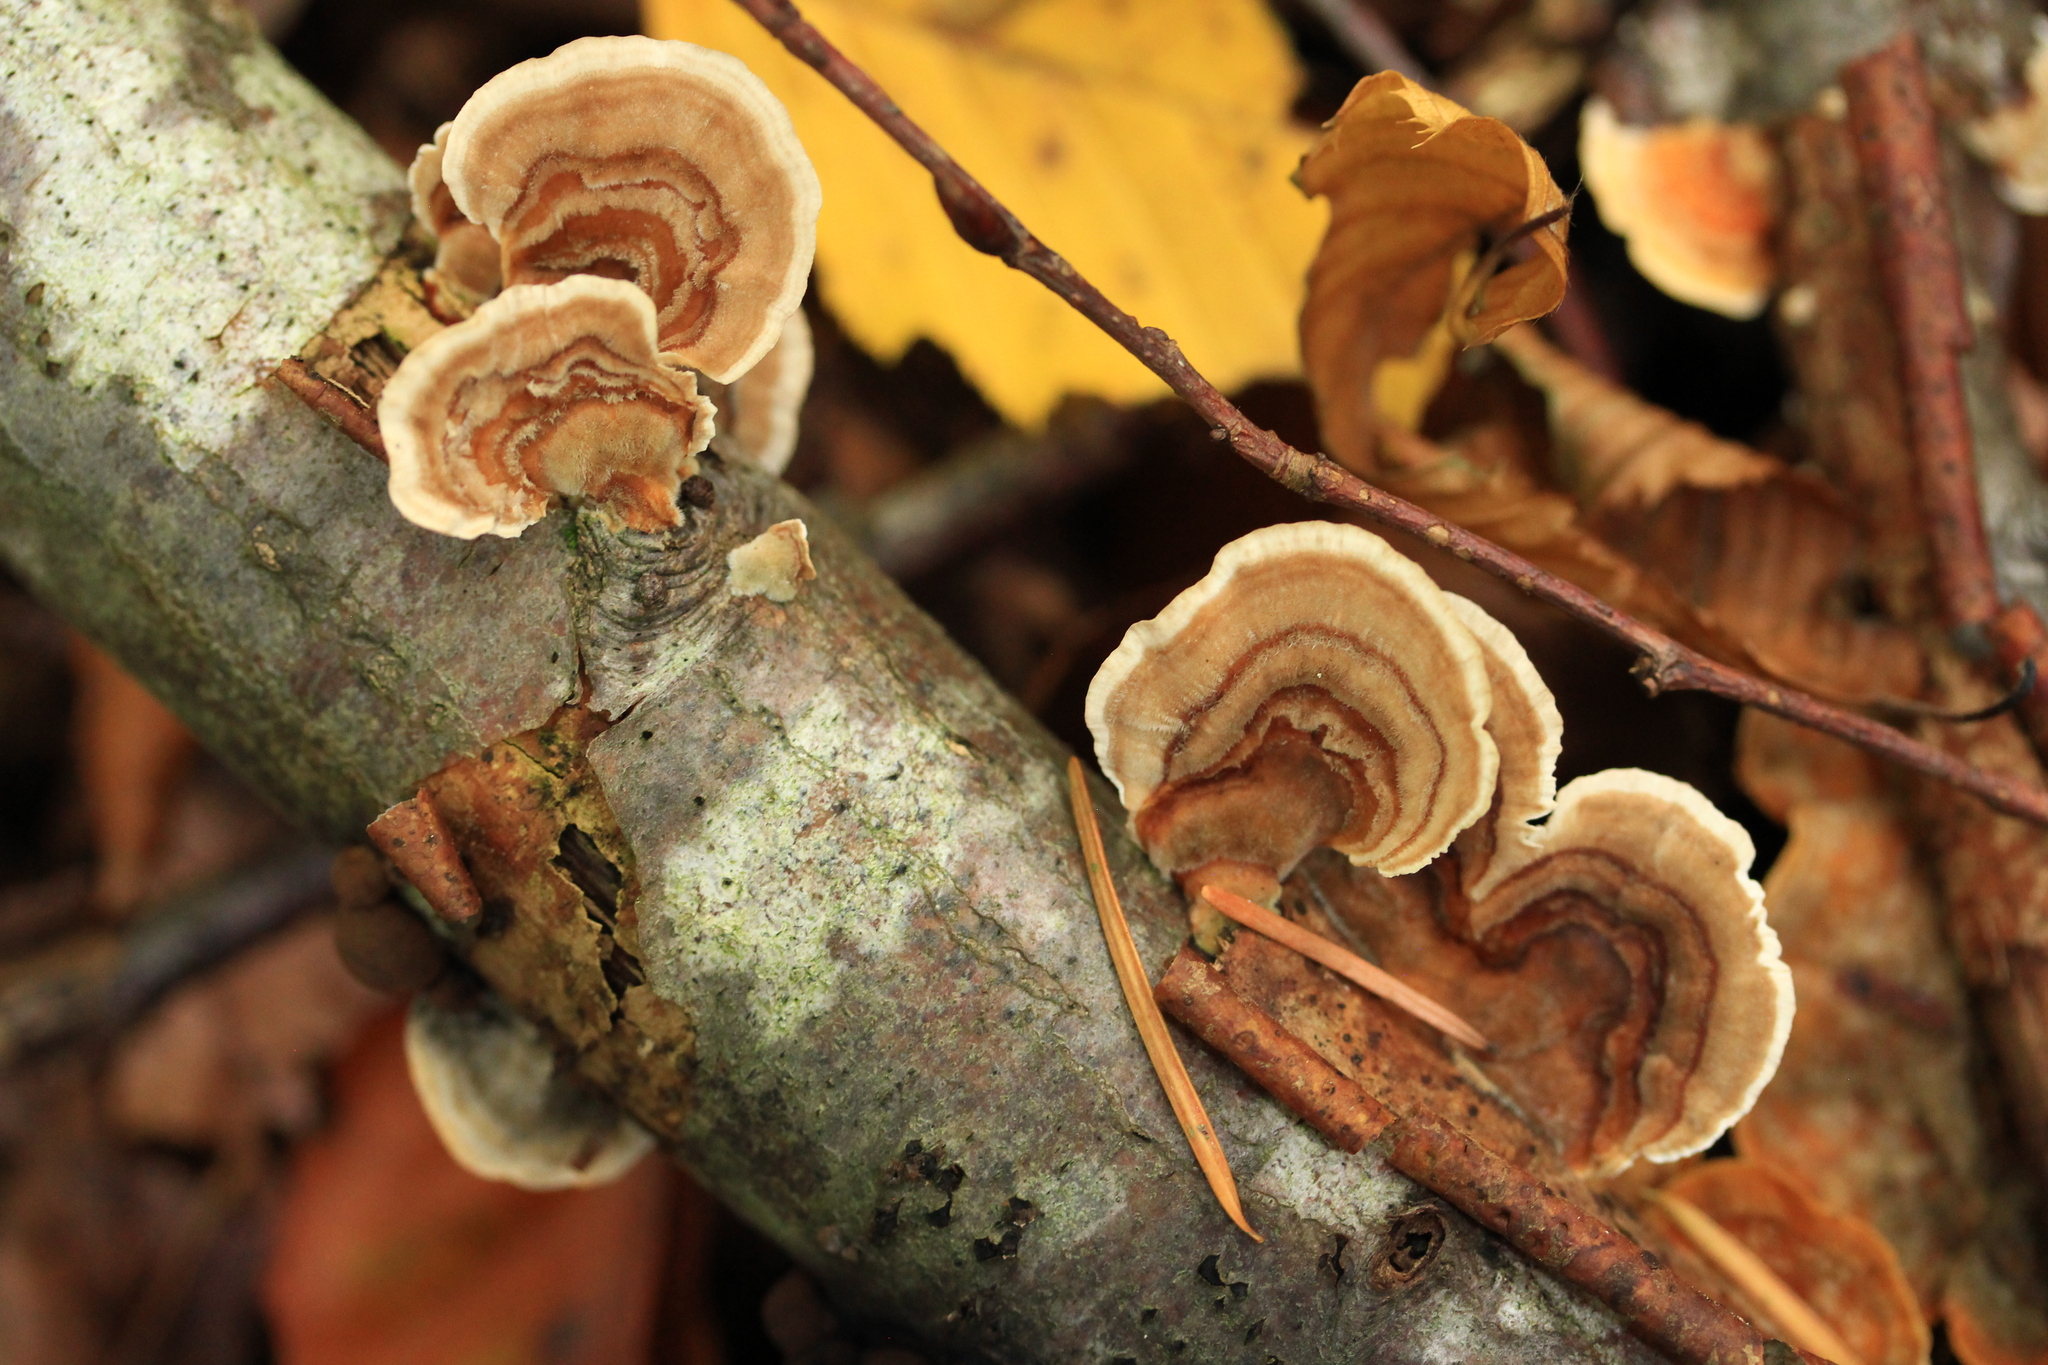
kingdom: Fungi
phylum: Basidiomycota
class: Agaricomycetes
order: Polyporales
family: Polyporaceae
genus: Trametes
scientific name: Trametes versicolor
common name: Turkeytail
